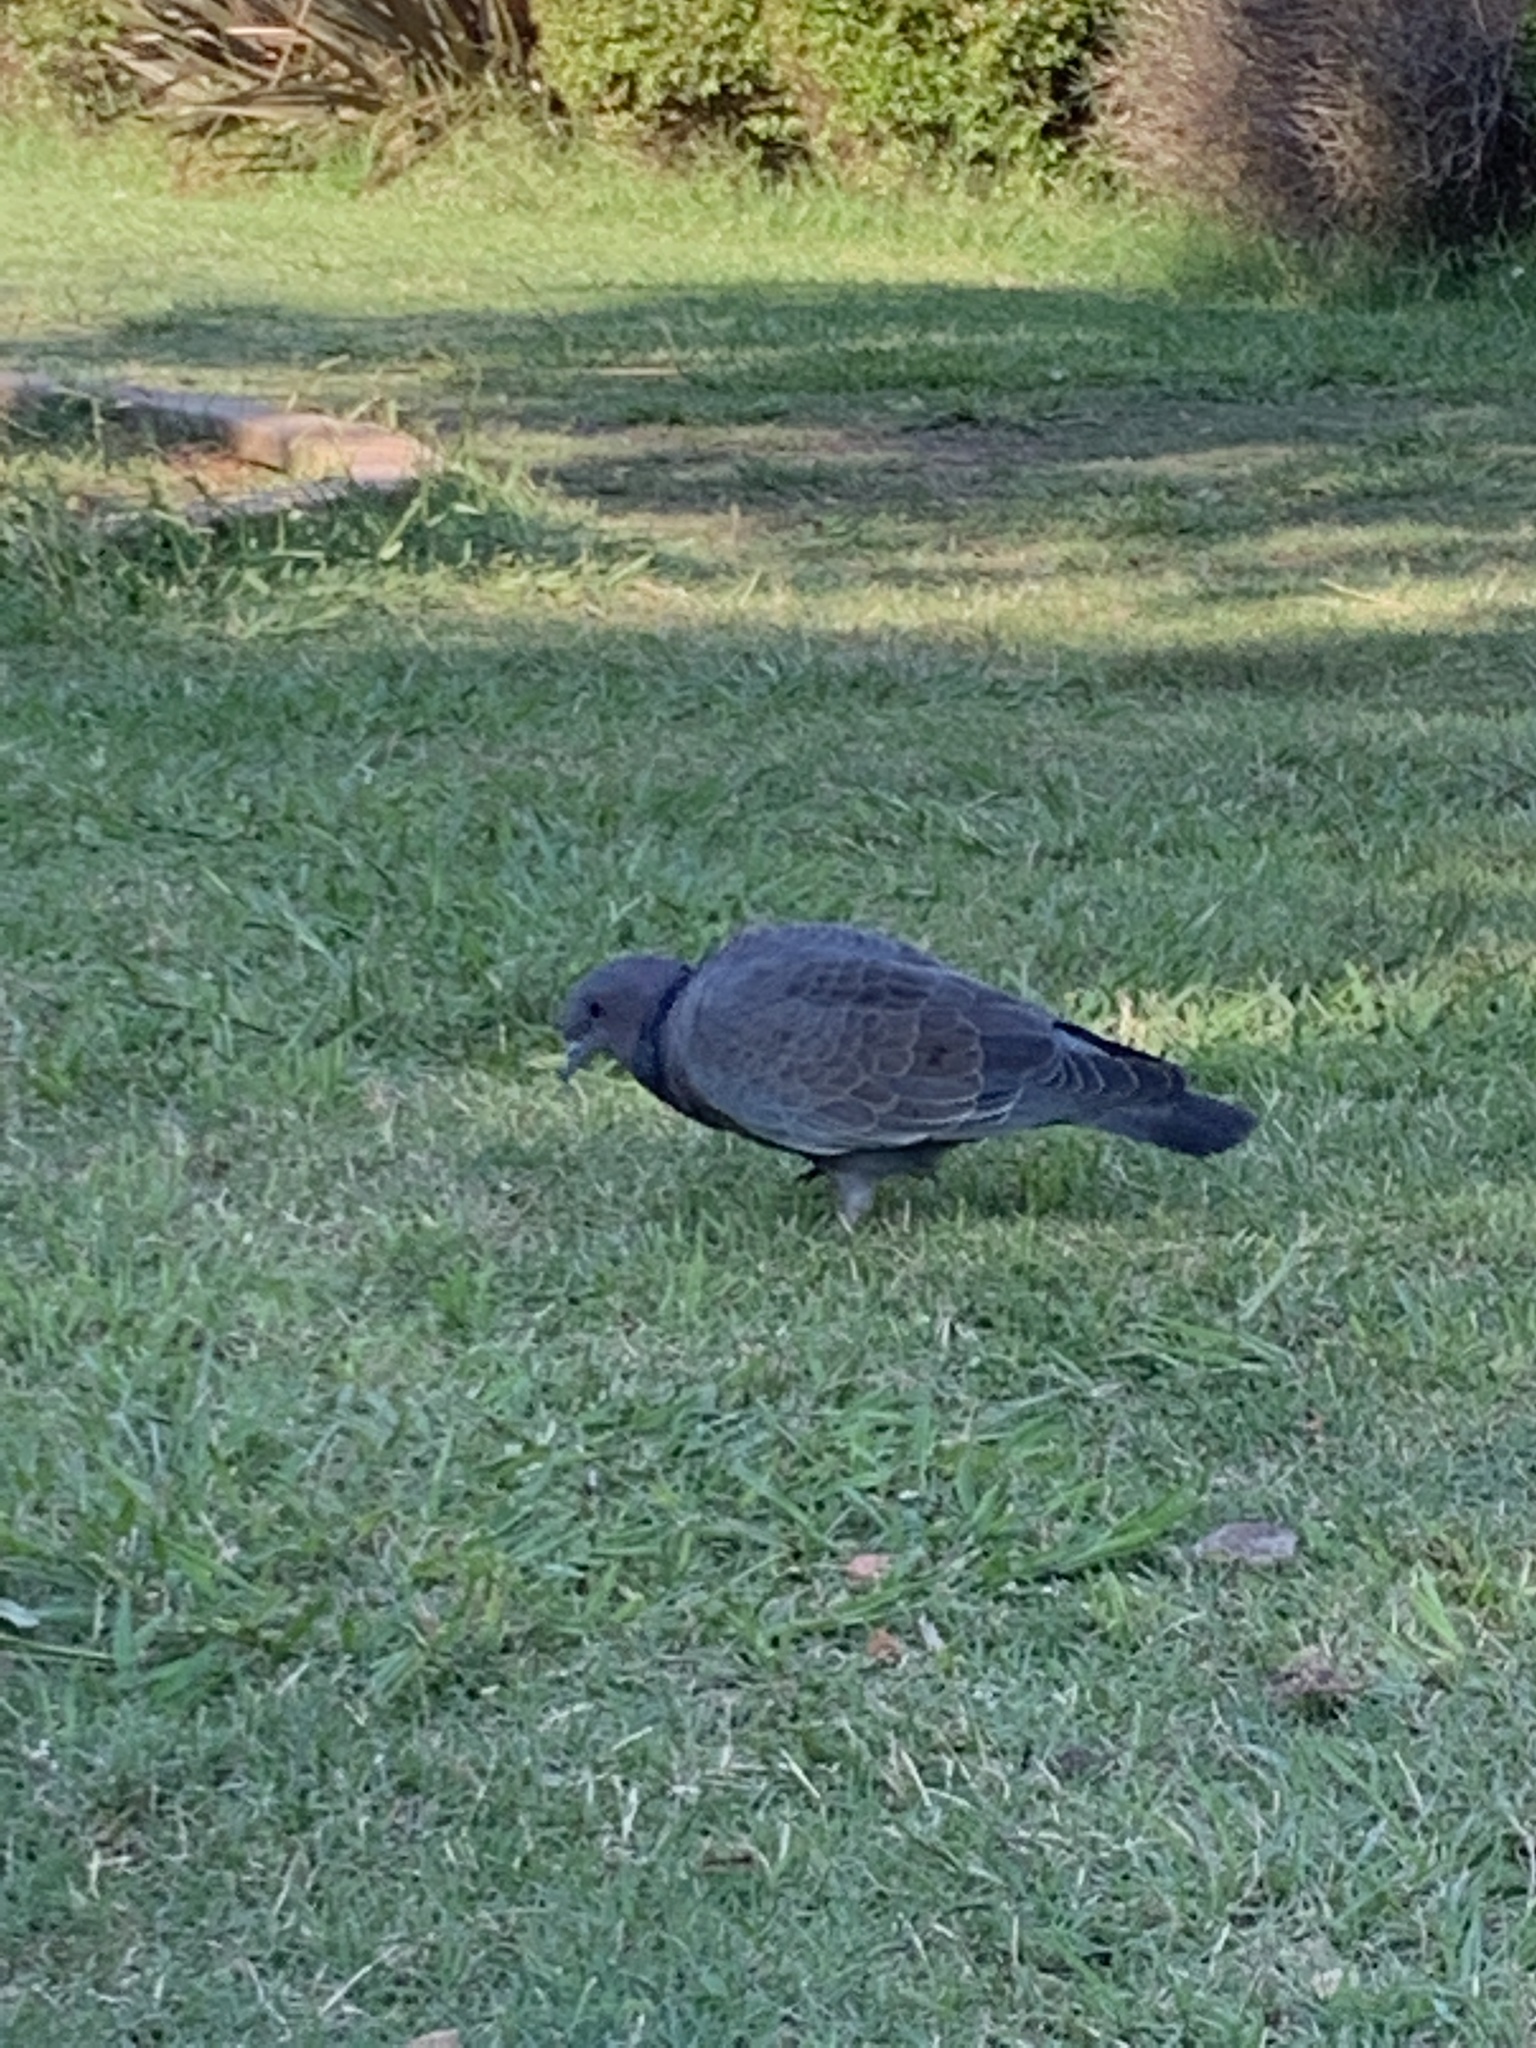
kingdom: Animalia
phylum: Chordata
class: Aves
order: Columbiformes
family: Columbidae
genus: Patagioenas
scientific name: Patagioenas picazuro
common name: Picazuro pigeon
